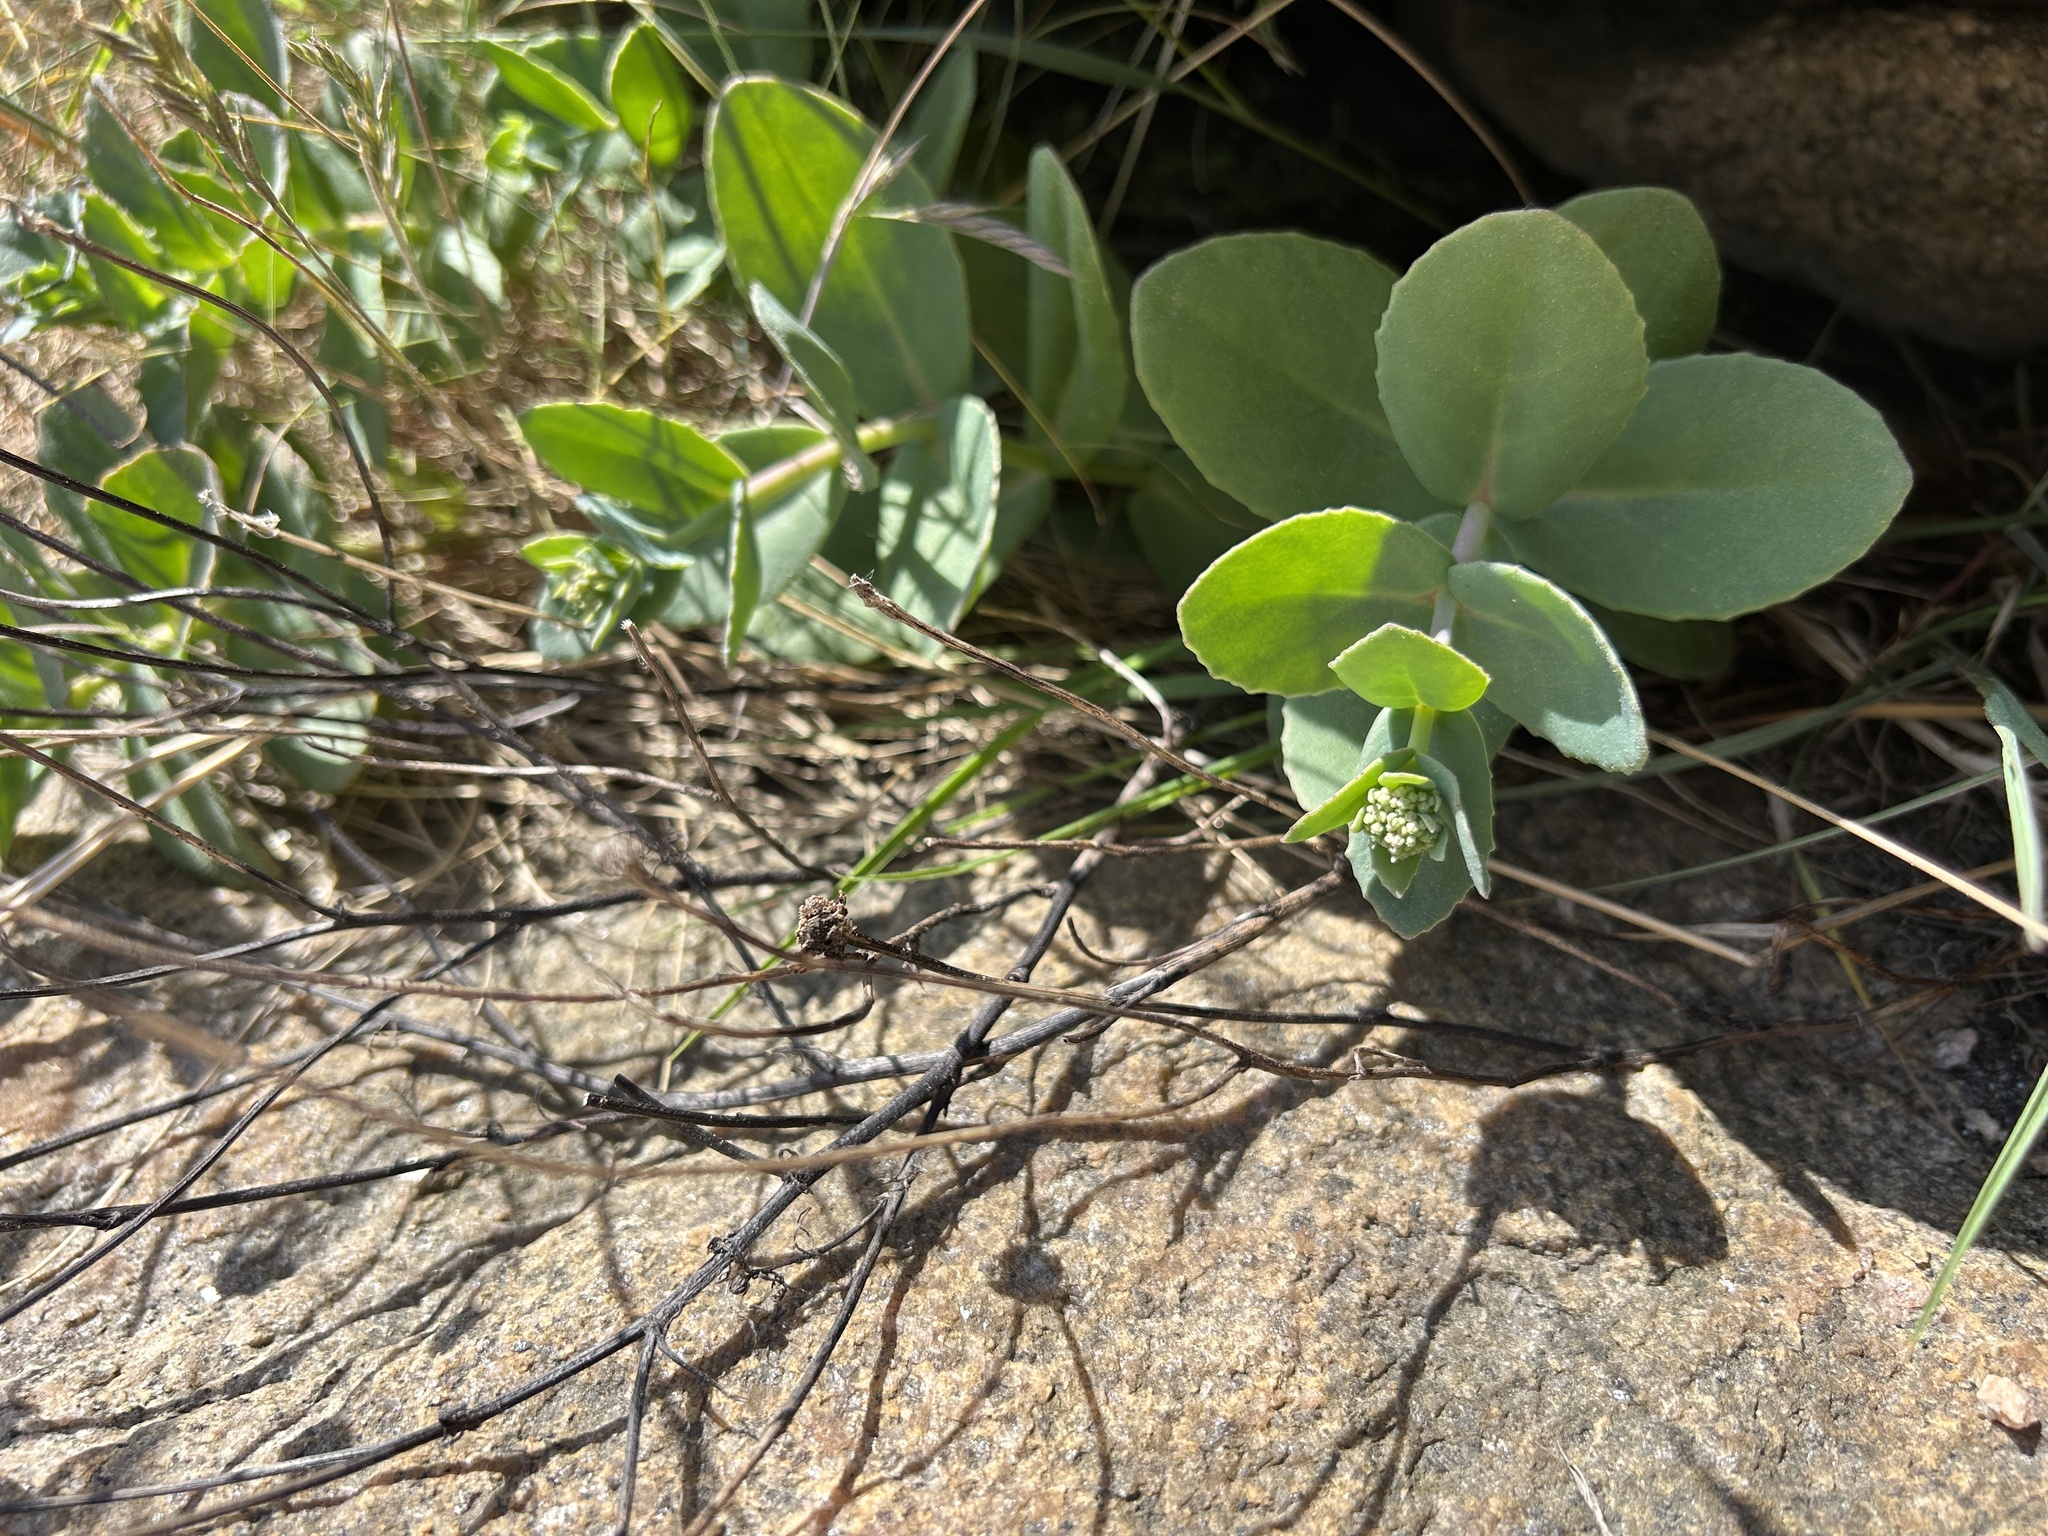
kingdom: Plantae
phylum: Tracheophyta
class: Magnoliopsida
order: Saxifragales
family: Crassulaceae
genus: Hylotelephium
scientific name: Hylotelephium maximum
